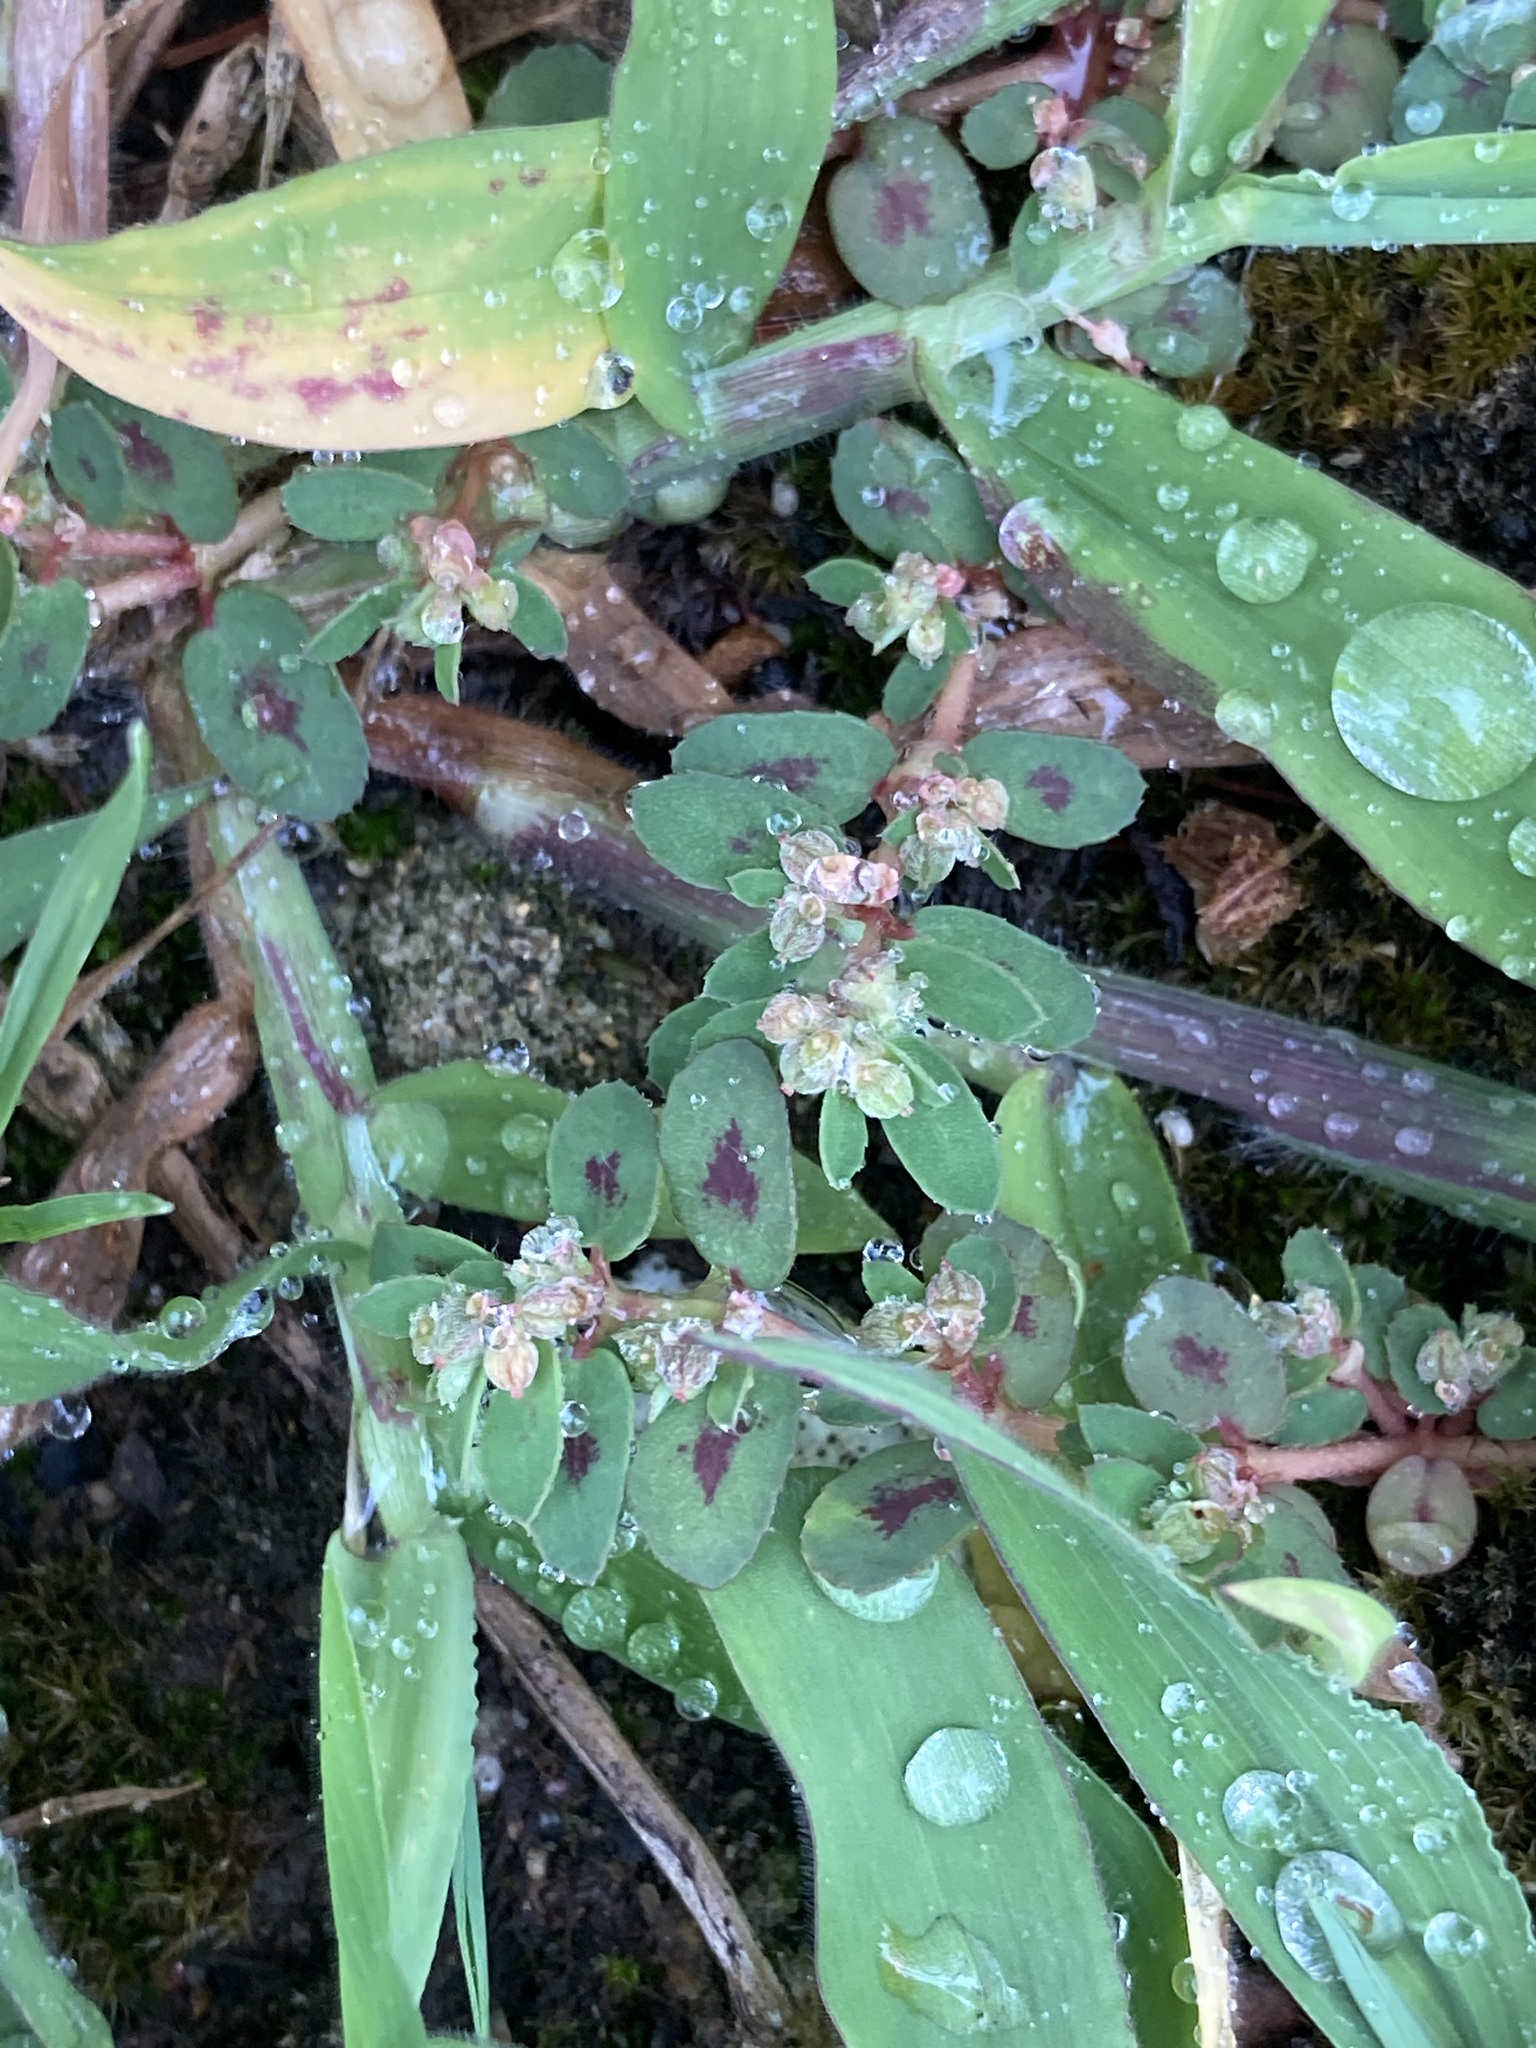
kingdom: Plantae
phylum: Tracheophyta
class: Magnoliopsida
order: Malpighiales
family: Euphorbiaceae
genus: Euphorbia
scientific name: Euphorbia maculata
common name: Spotted spurge
